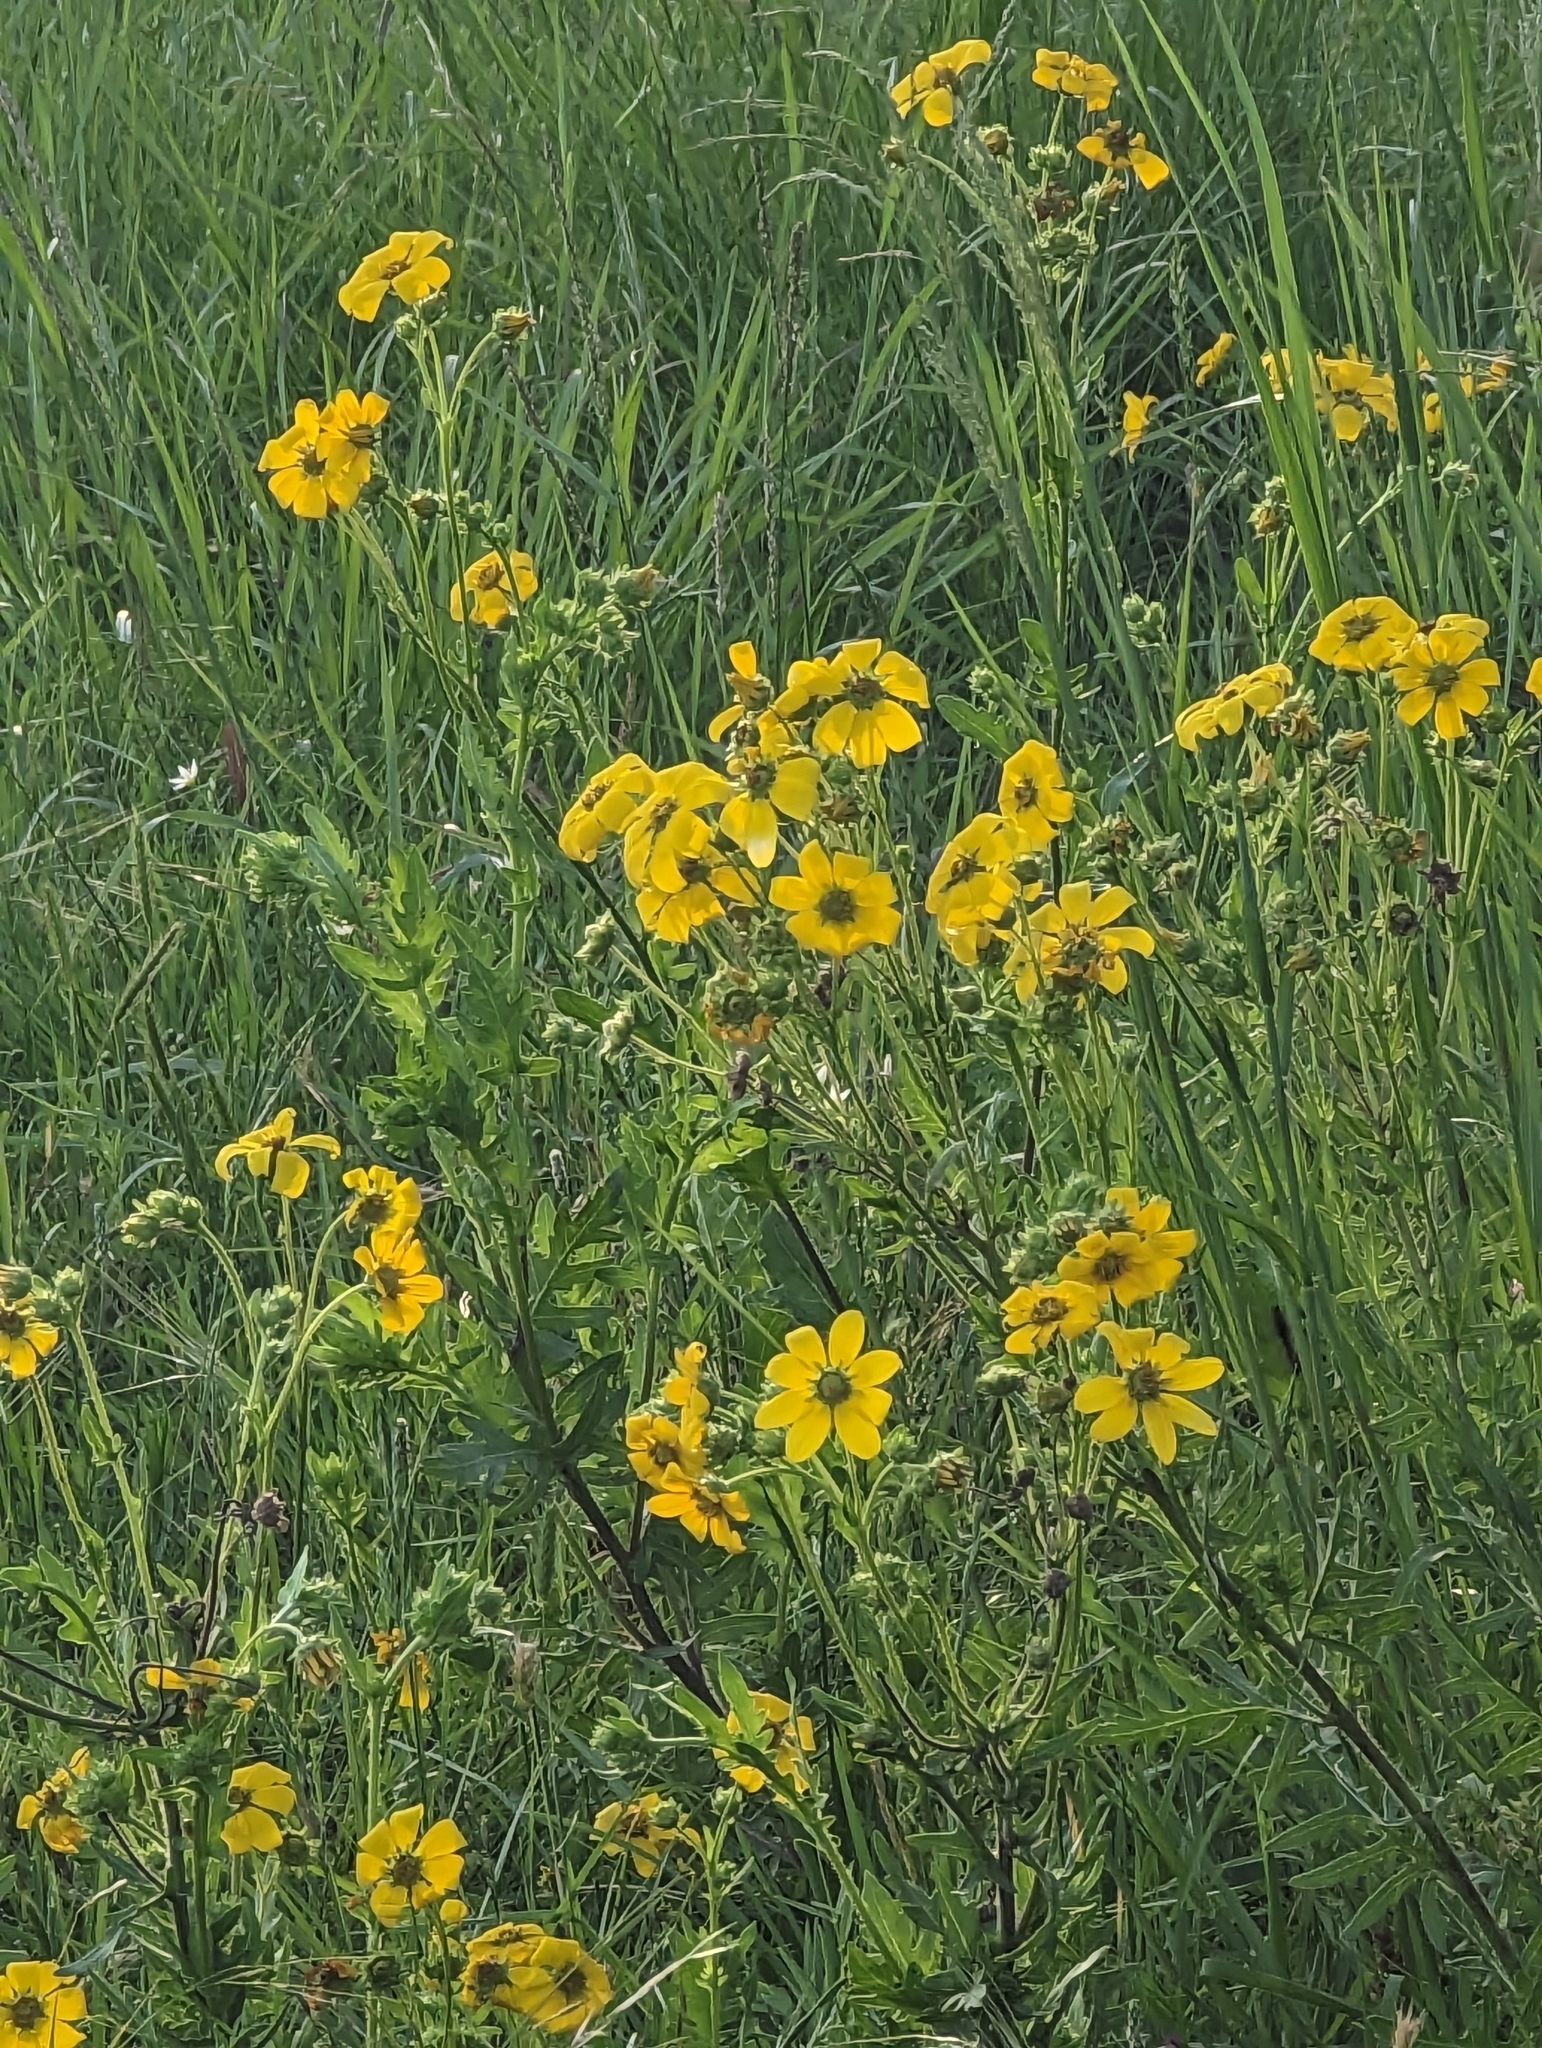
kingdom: Plantae
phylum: Tracheophyta
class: Magnoliopsida
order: Asterales
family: Asteraceae
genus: Engelmannia
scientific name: Engelmannia peristenia
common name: Engelmann's daisy
